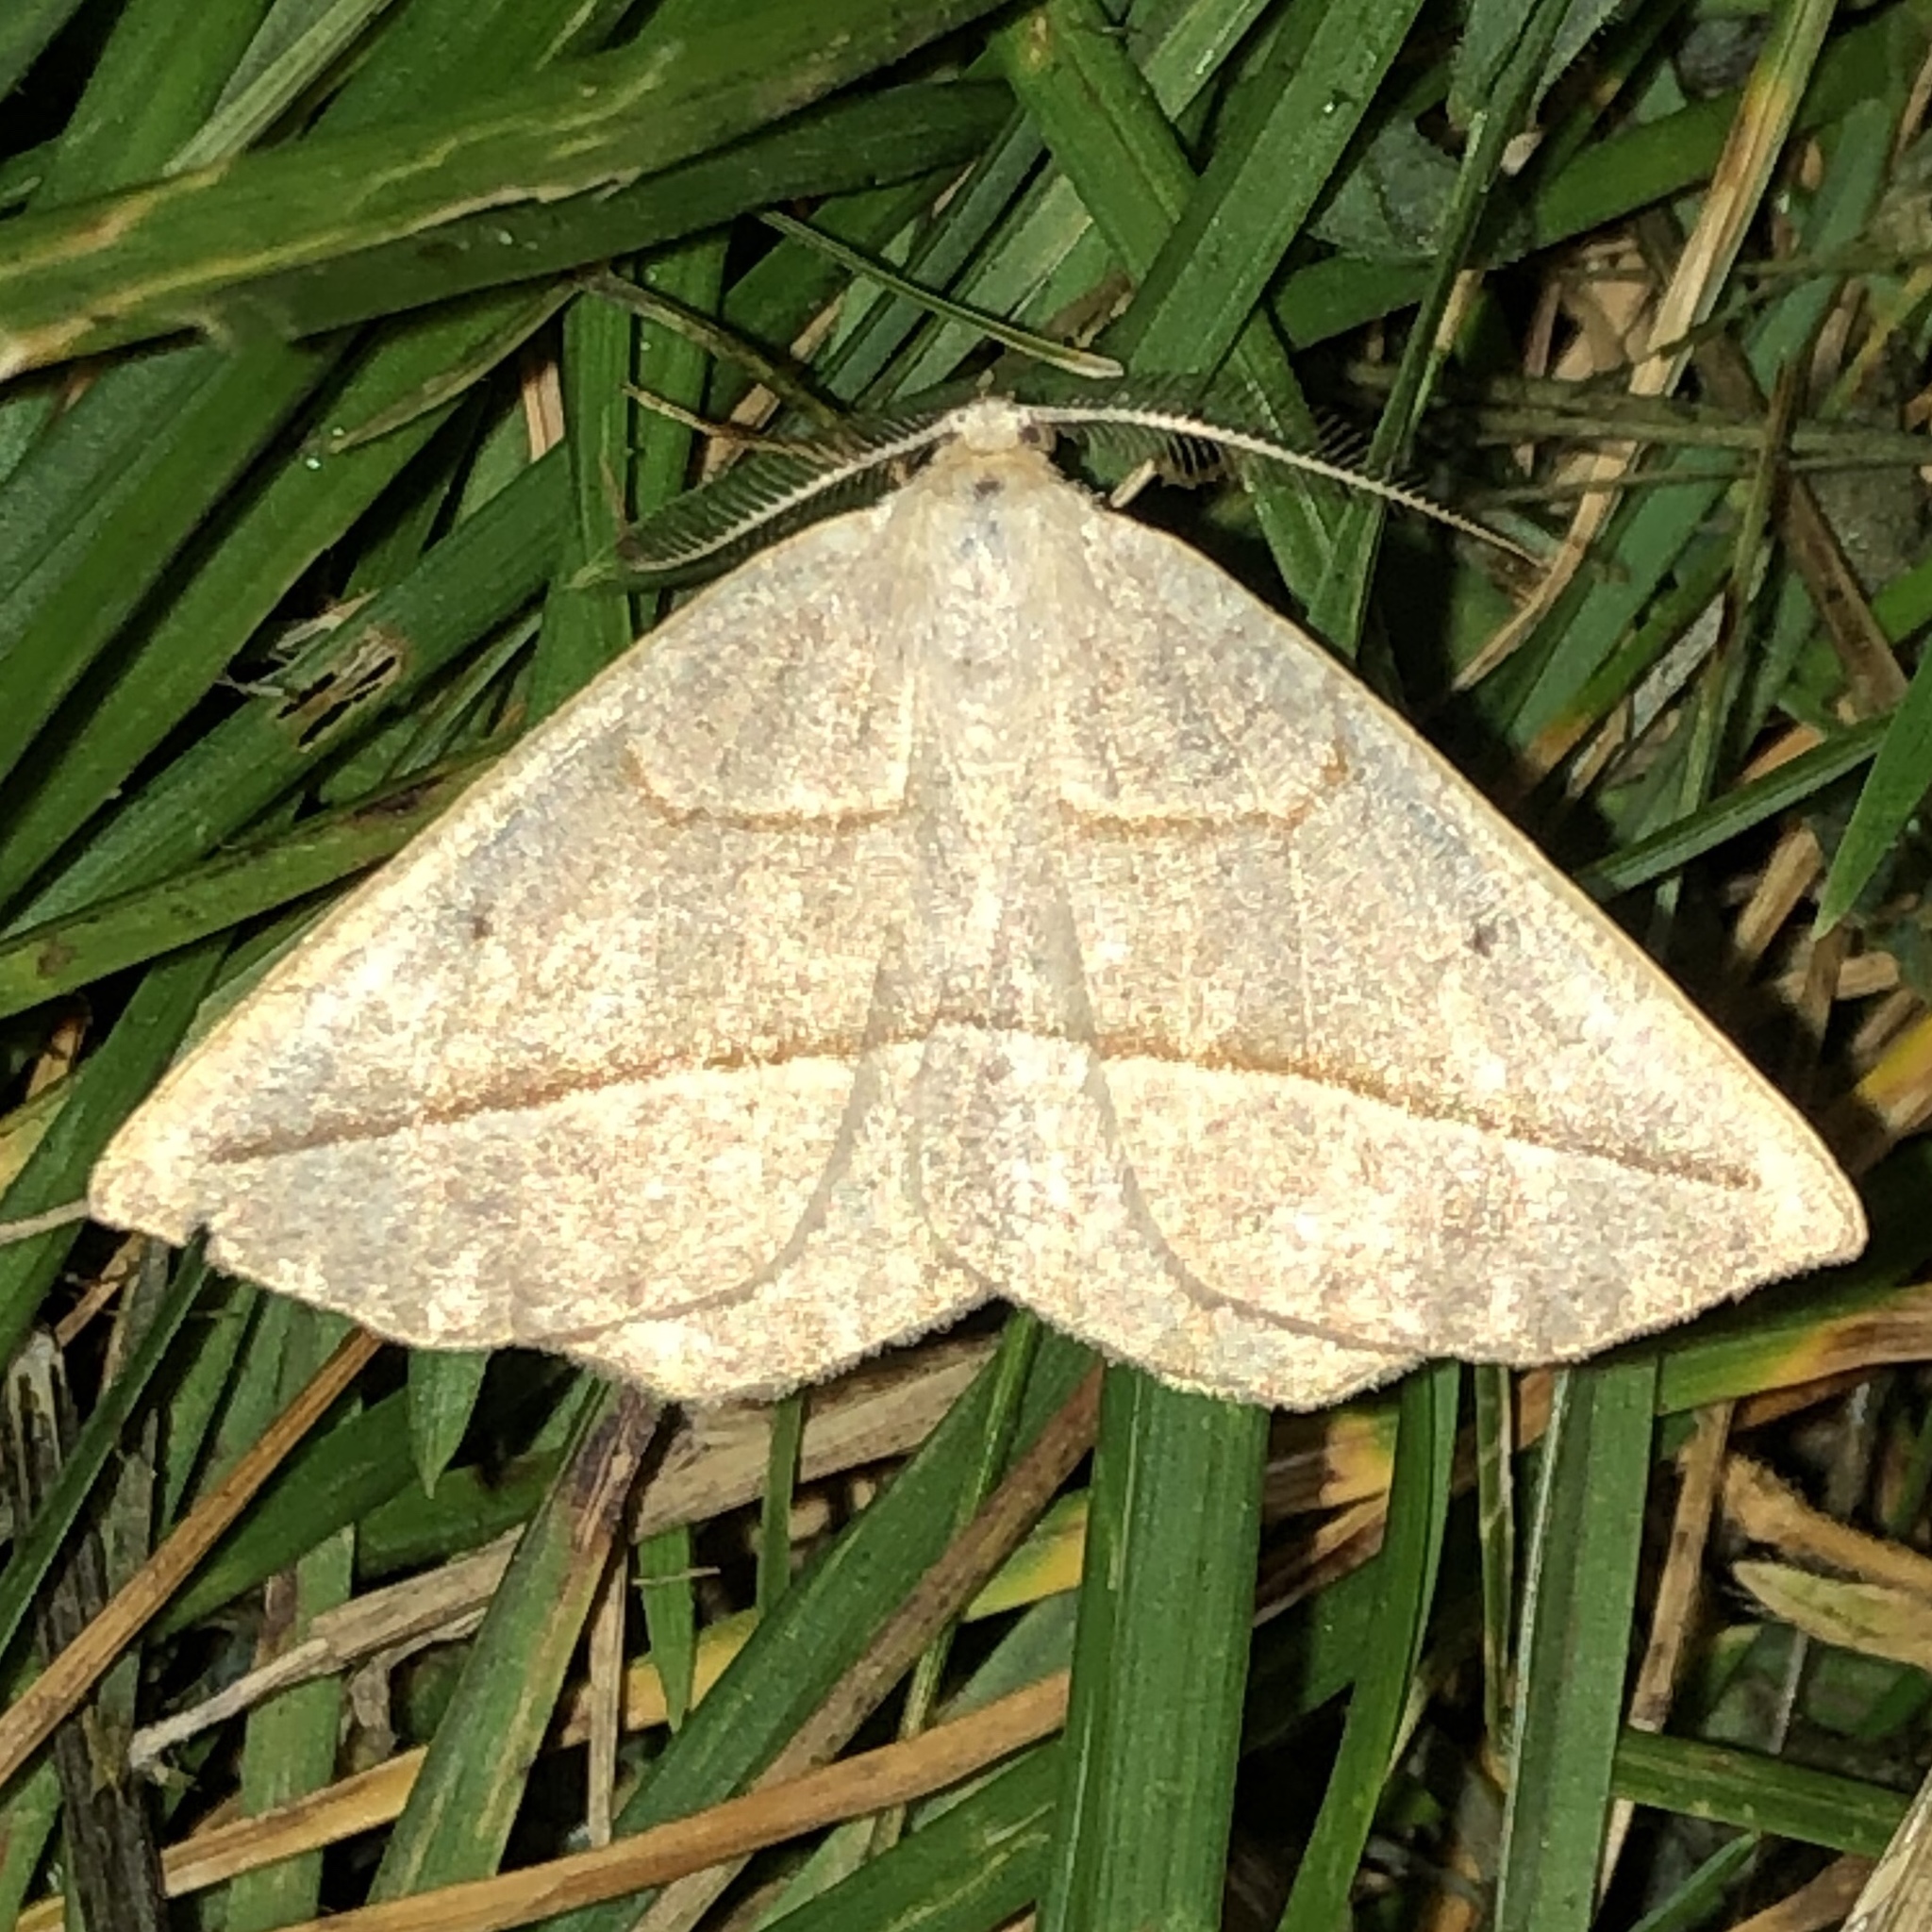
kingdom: Animalia
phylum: Arthropoda
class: Insecta
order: Lepidoptera
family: Geometridae
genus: Eusarca
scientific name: Eusarca confusaria
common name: Confused eusarca
